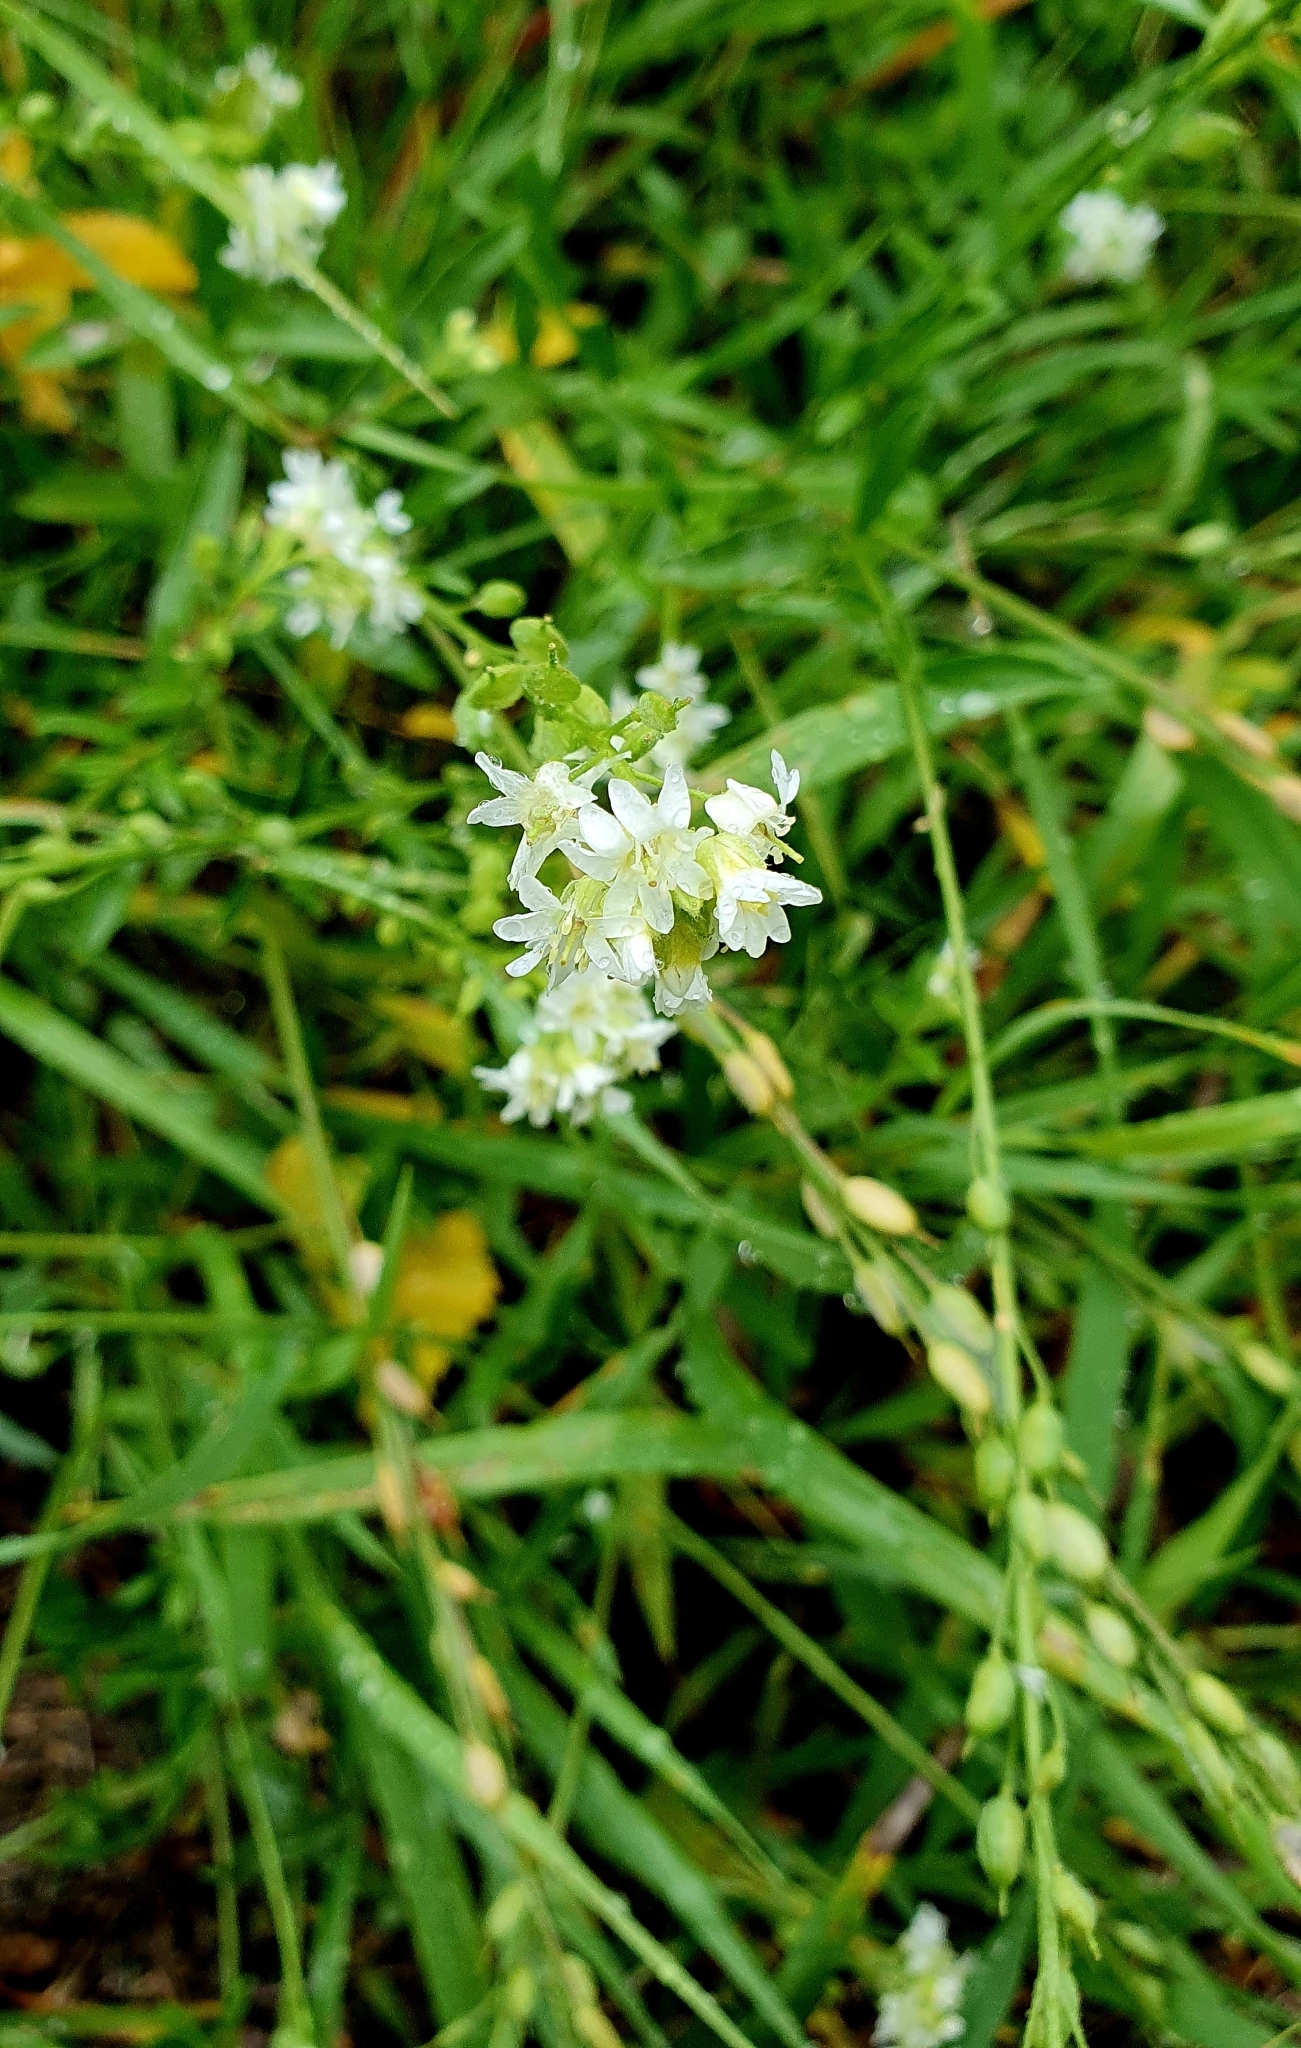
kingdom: Plantae
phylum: Tracheophyta
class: Magnoliopsida
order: Brassicales
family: Brassicaceae
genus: Berteroa
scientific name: Berteroa incana
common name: Hoary alison
